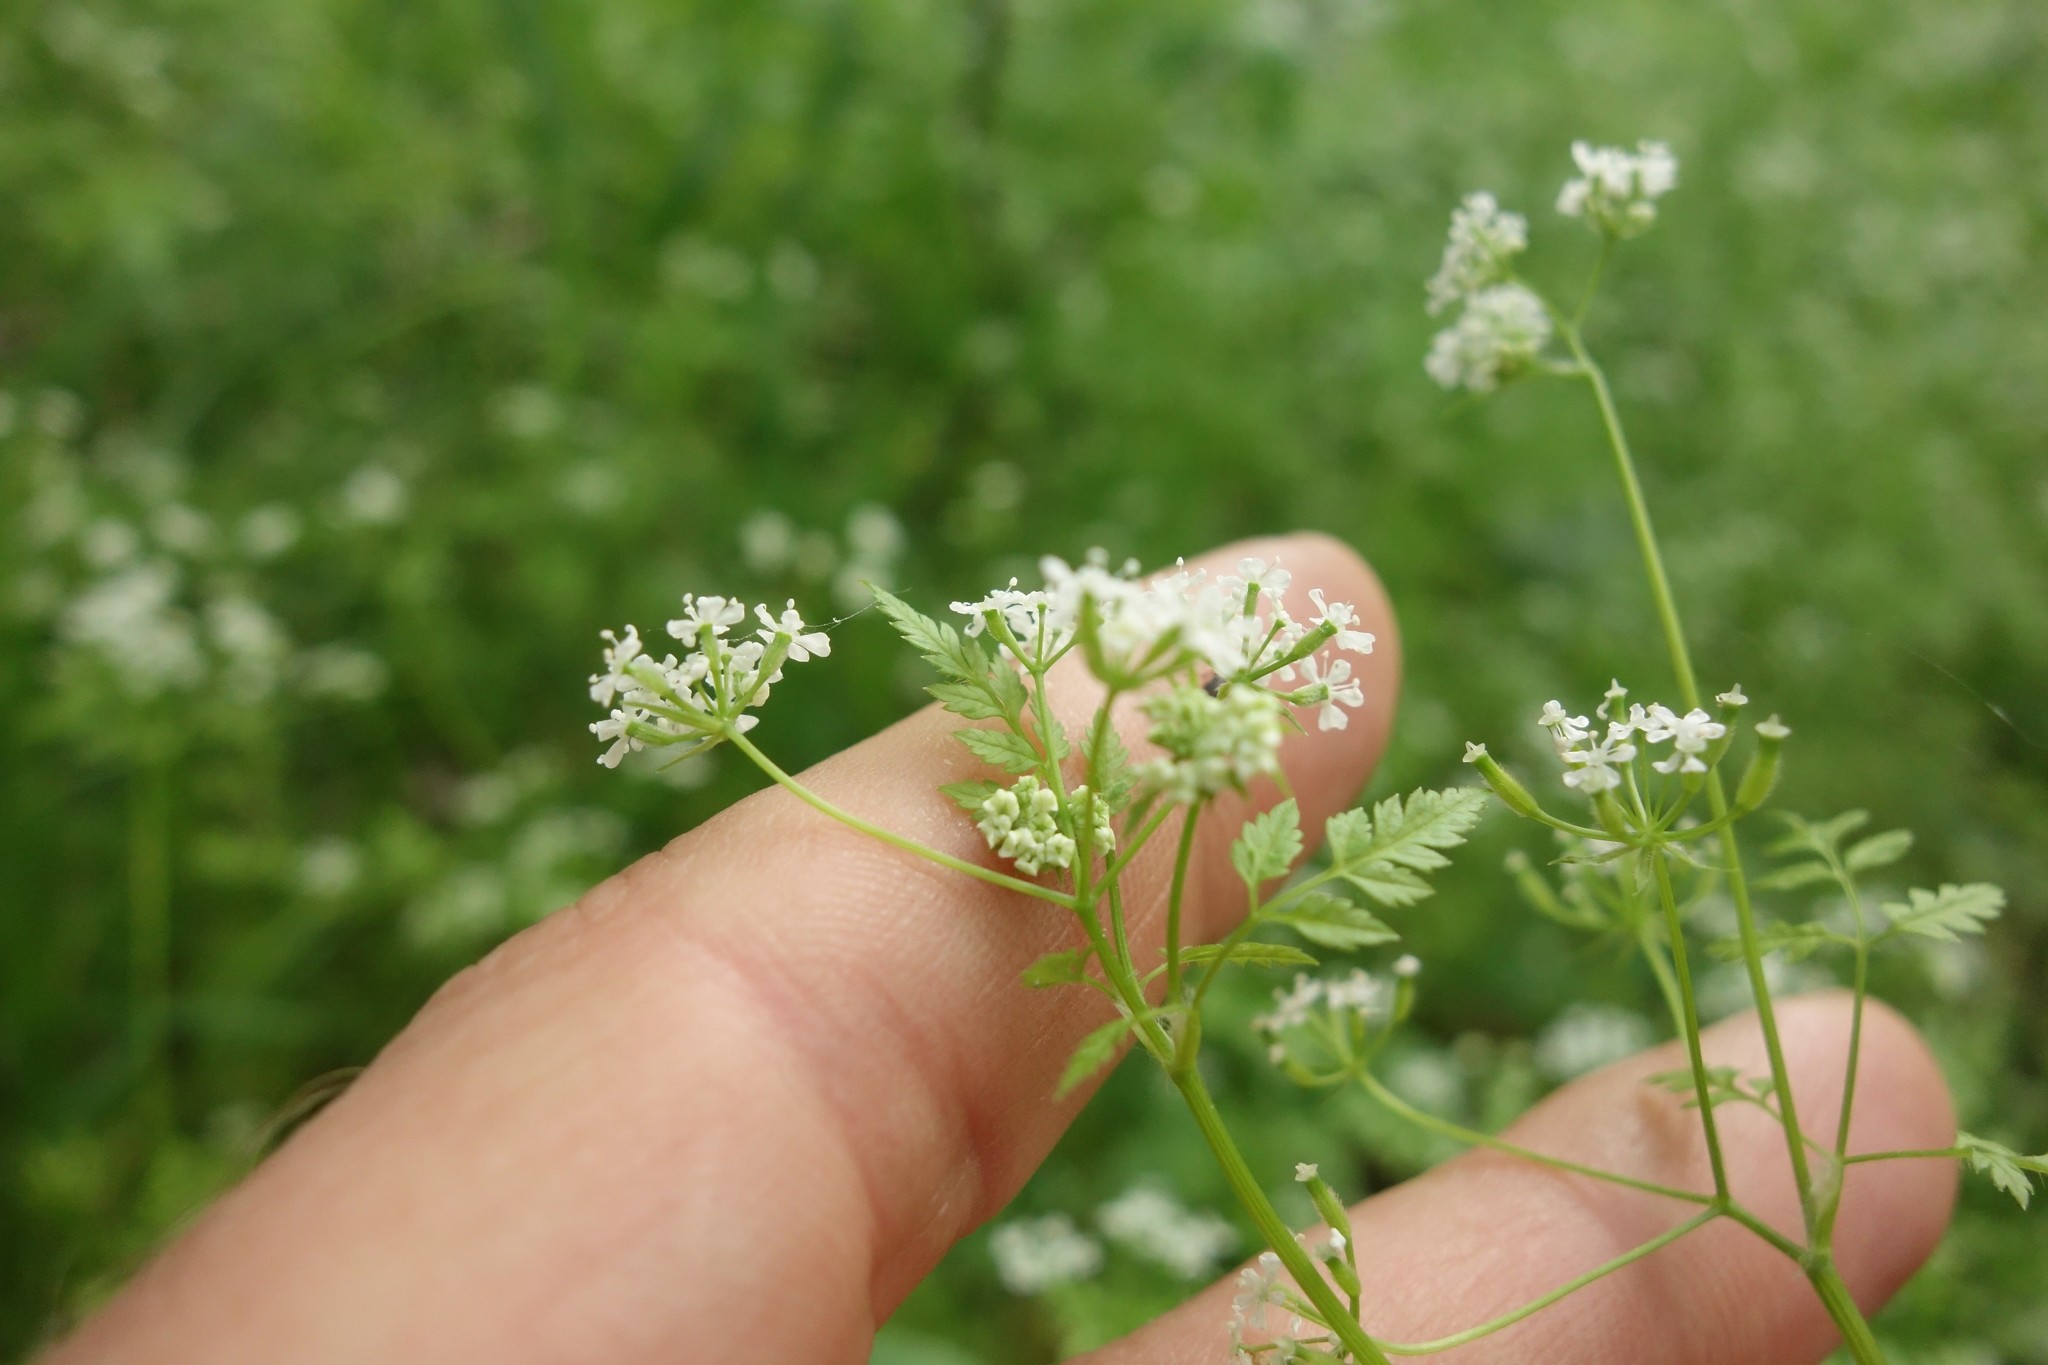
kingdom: Plantae
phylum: Tracheophyta
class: Magnoliopsida
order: Apiales
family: Apiaceae
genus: Anthriscus
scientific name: Anthriscus cerefolium
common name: Garden chervil
